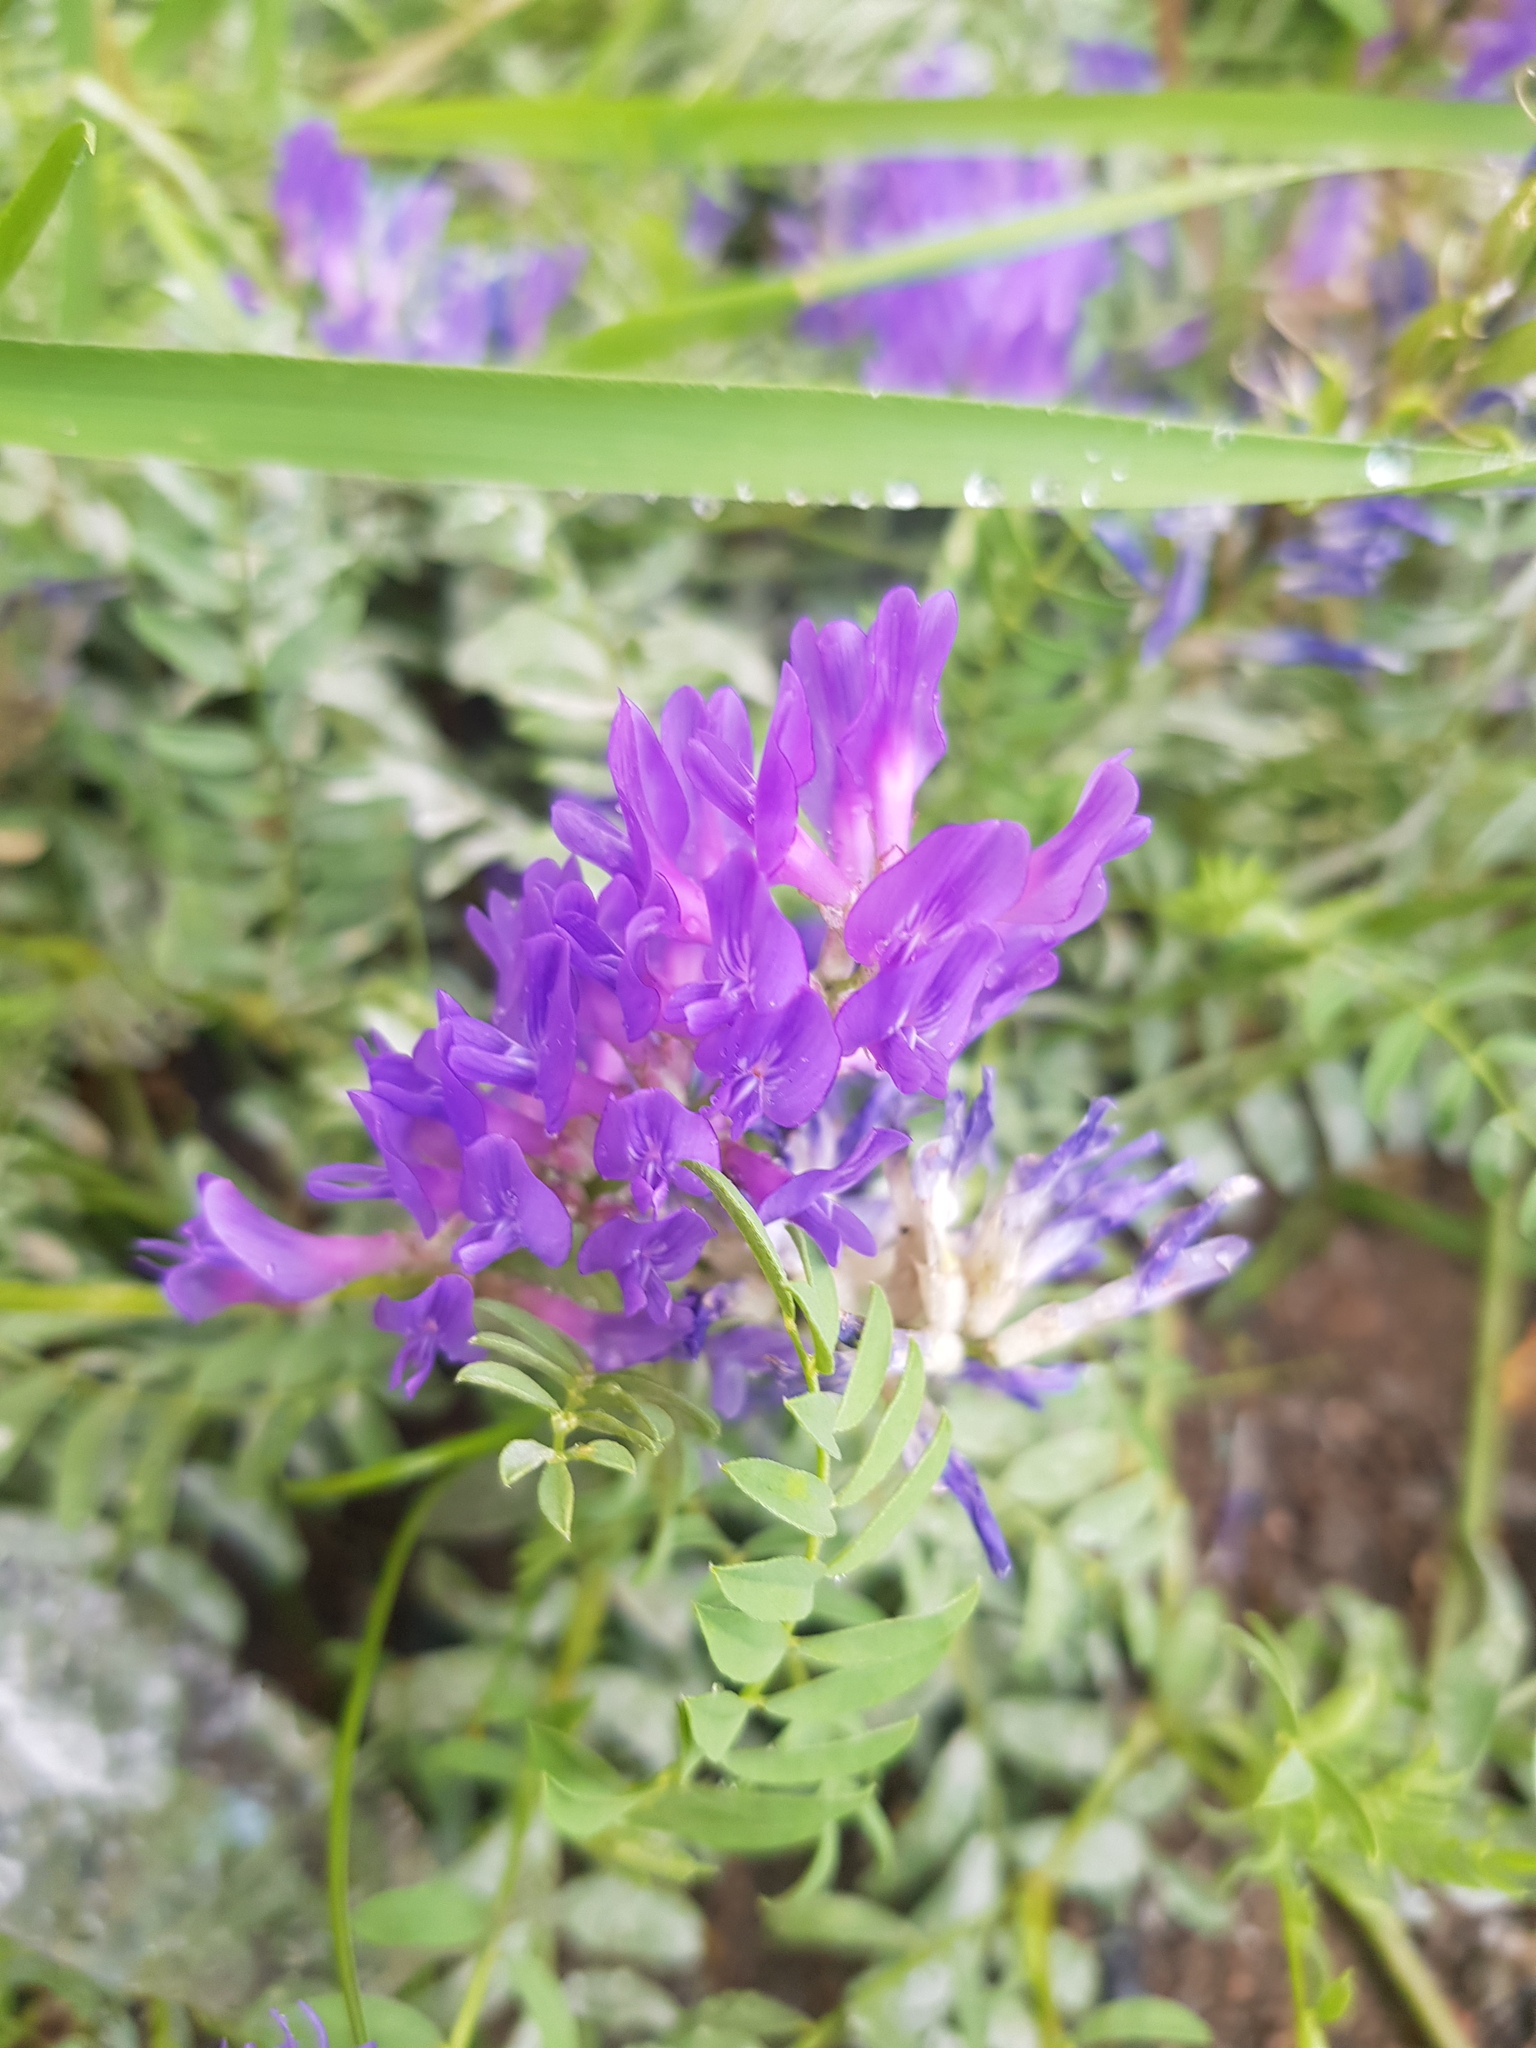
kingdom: Plantae
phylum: Tracheophyta
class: Magnoliopsida
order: Fabales
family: Fabaceae
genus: Astragalus
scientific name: Astragalus laxmannii
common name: Laxmann's milk-vetch
